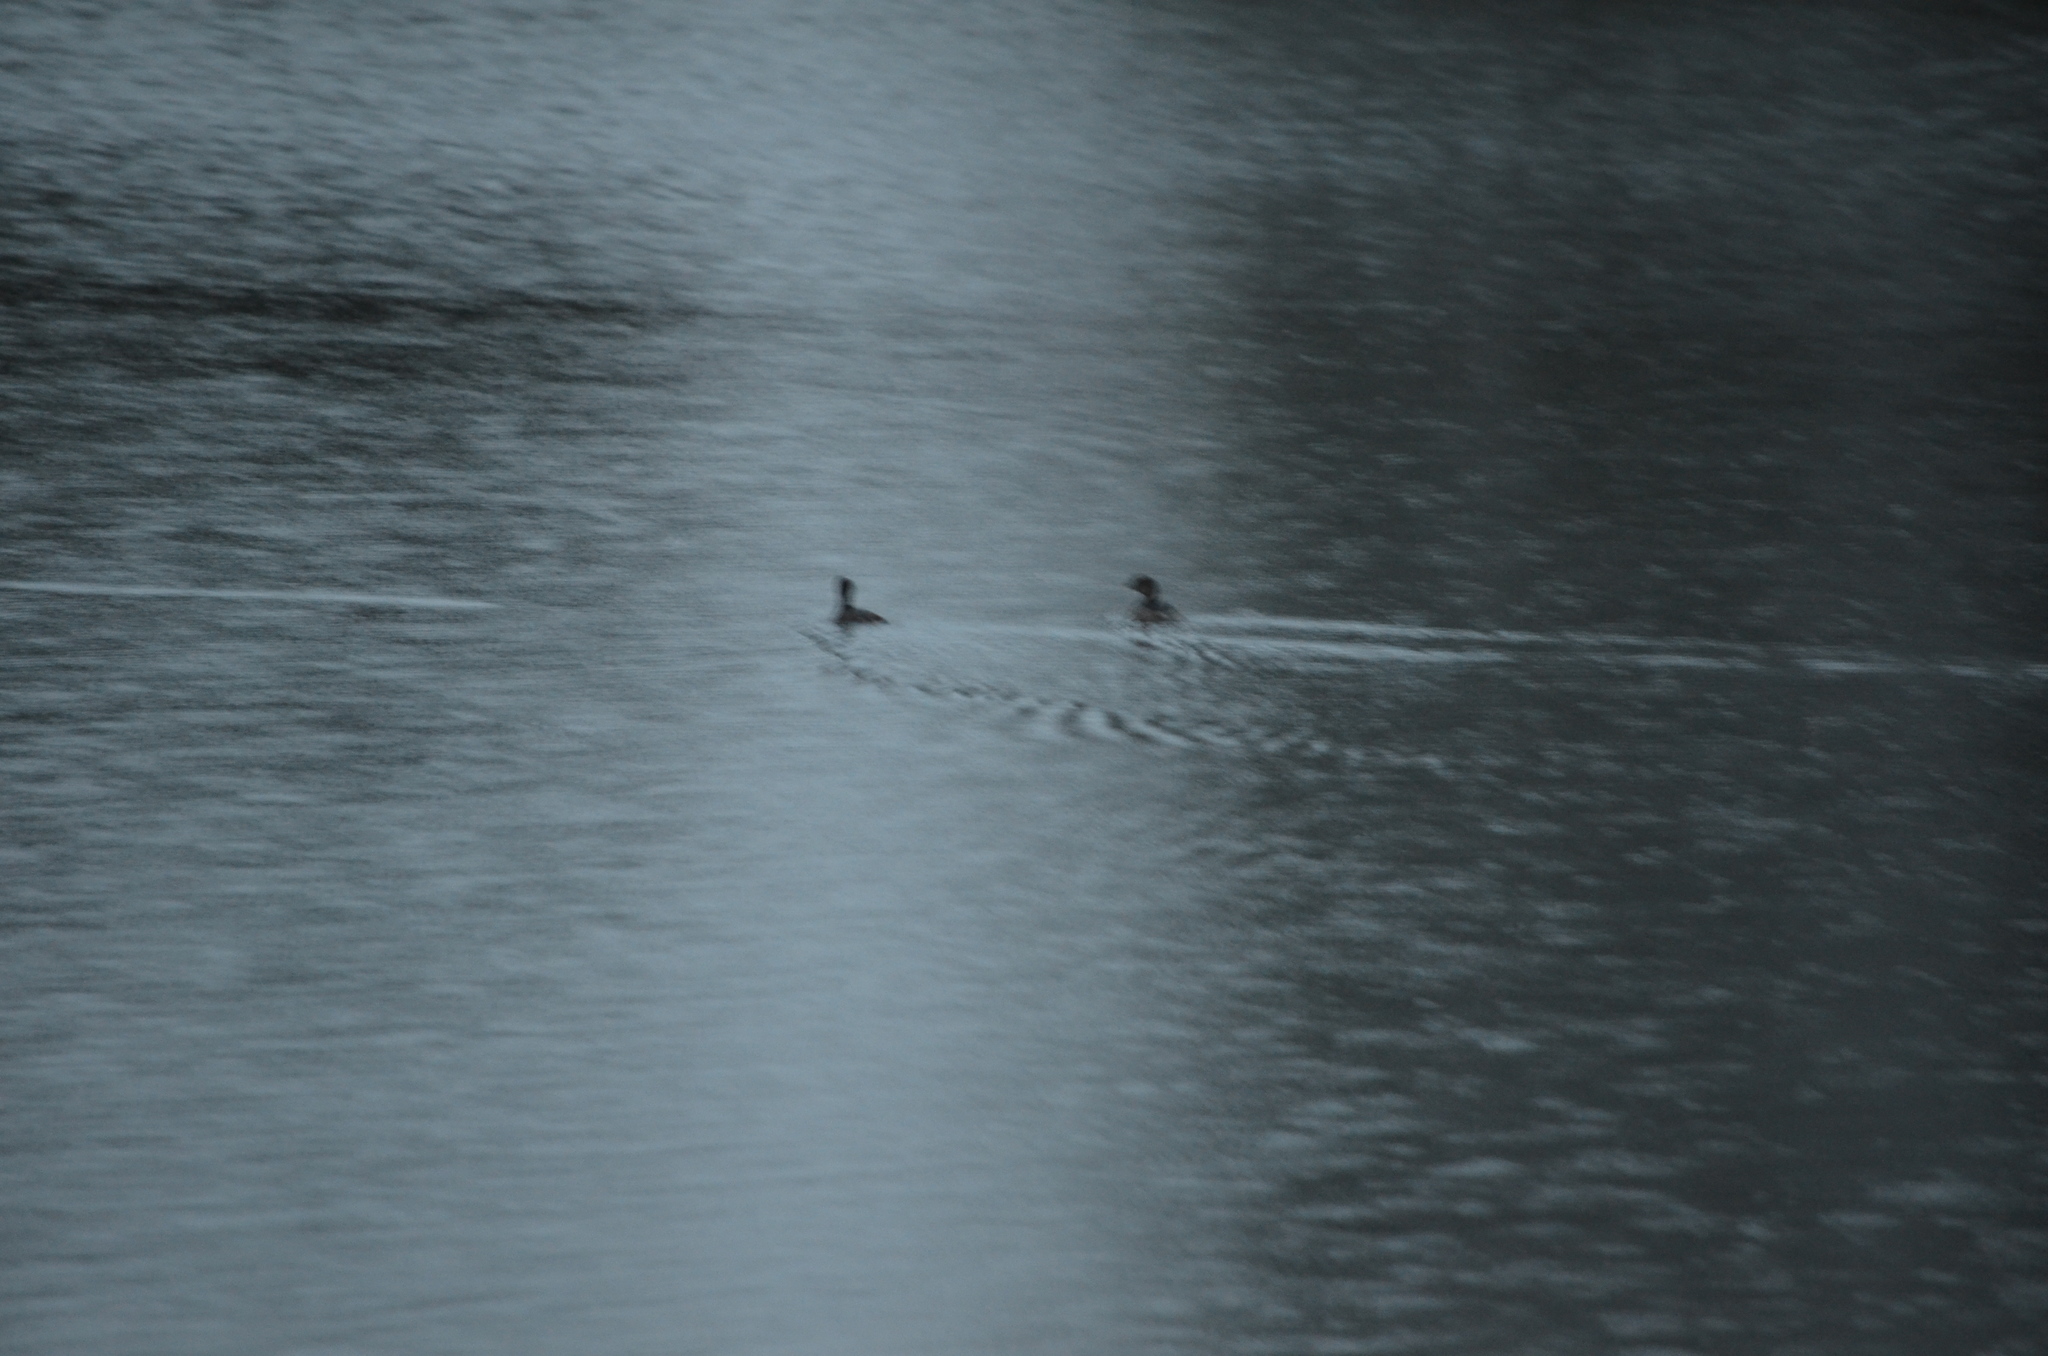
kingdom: Animalia
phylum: Chordata
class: Aves
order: Podicipediformes
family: Podicipedidae
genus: Podilymbus
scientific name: Podilymbus podiceps
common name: Pied-billed grebe
